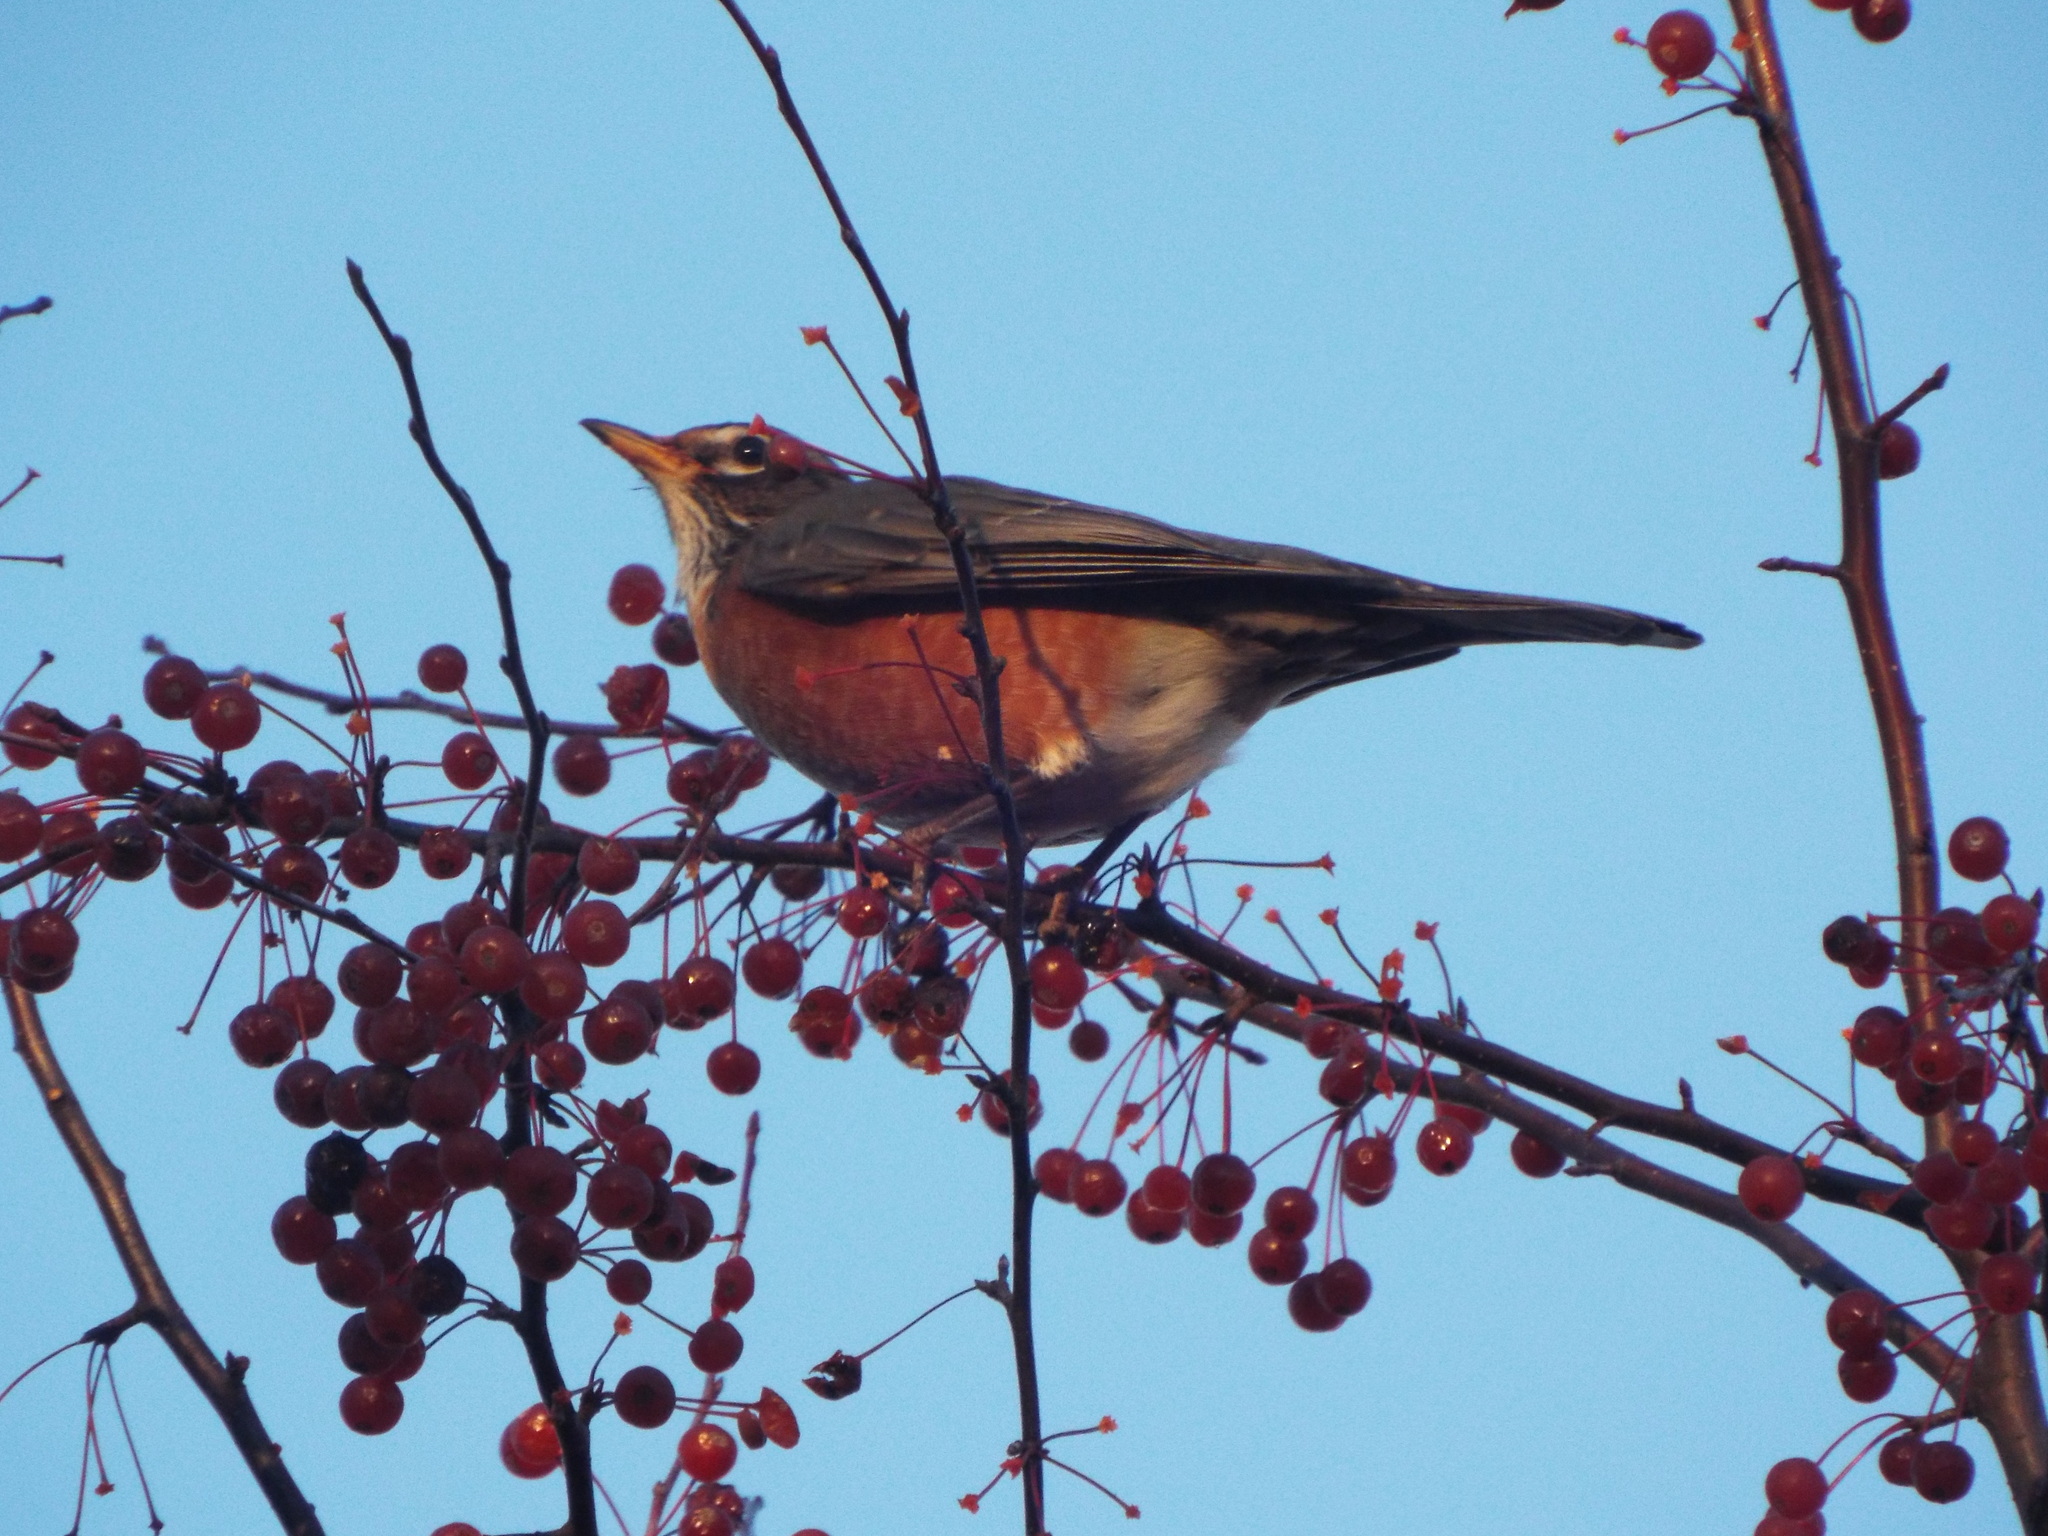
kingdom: Animalia
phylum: Chordata
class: Aves
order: Passeriformes
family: Turdidae
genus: Turdus
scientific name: Turdus migratorius
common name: American robin
